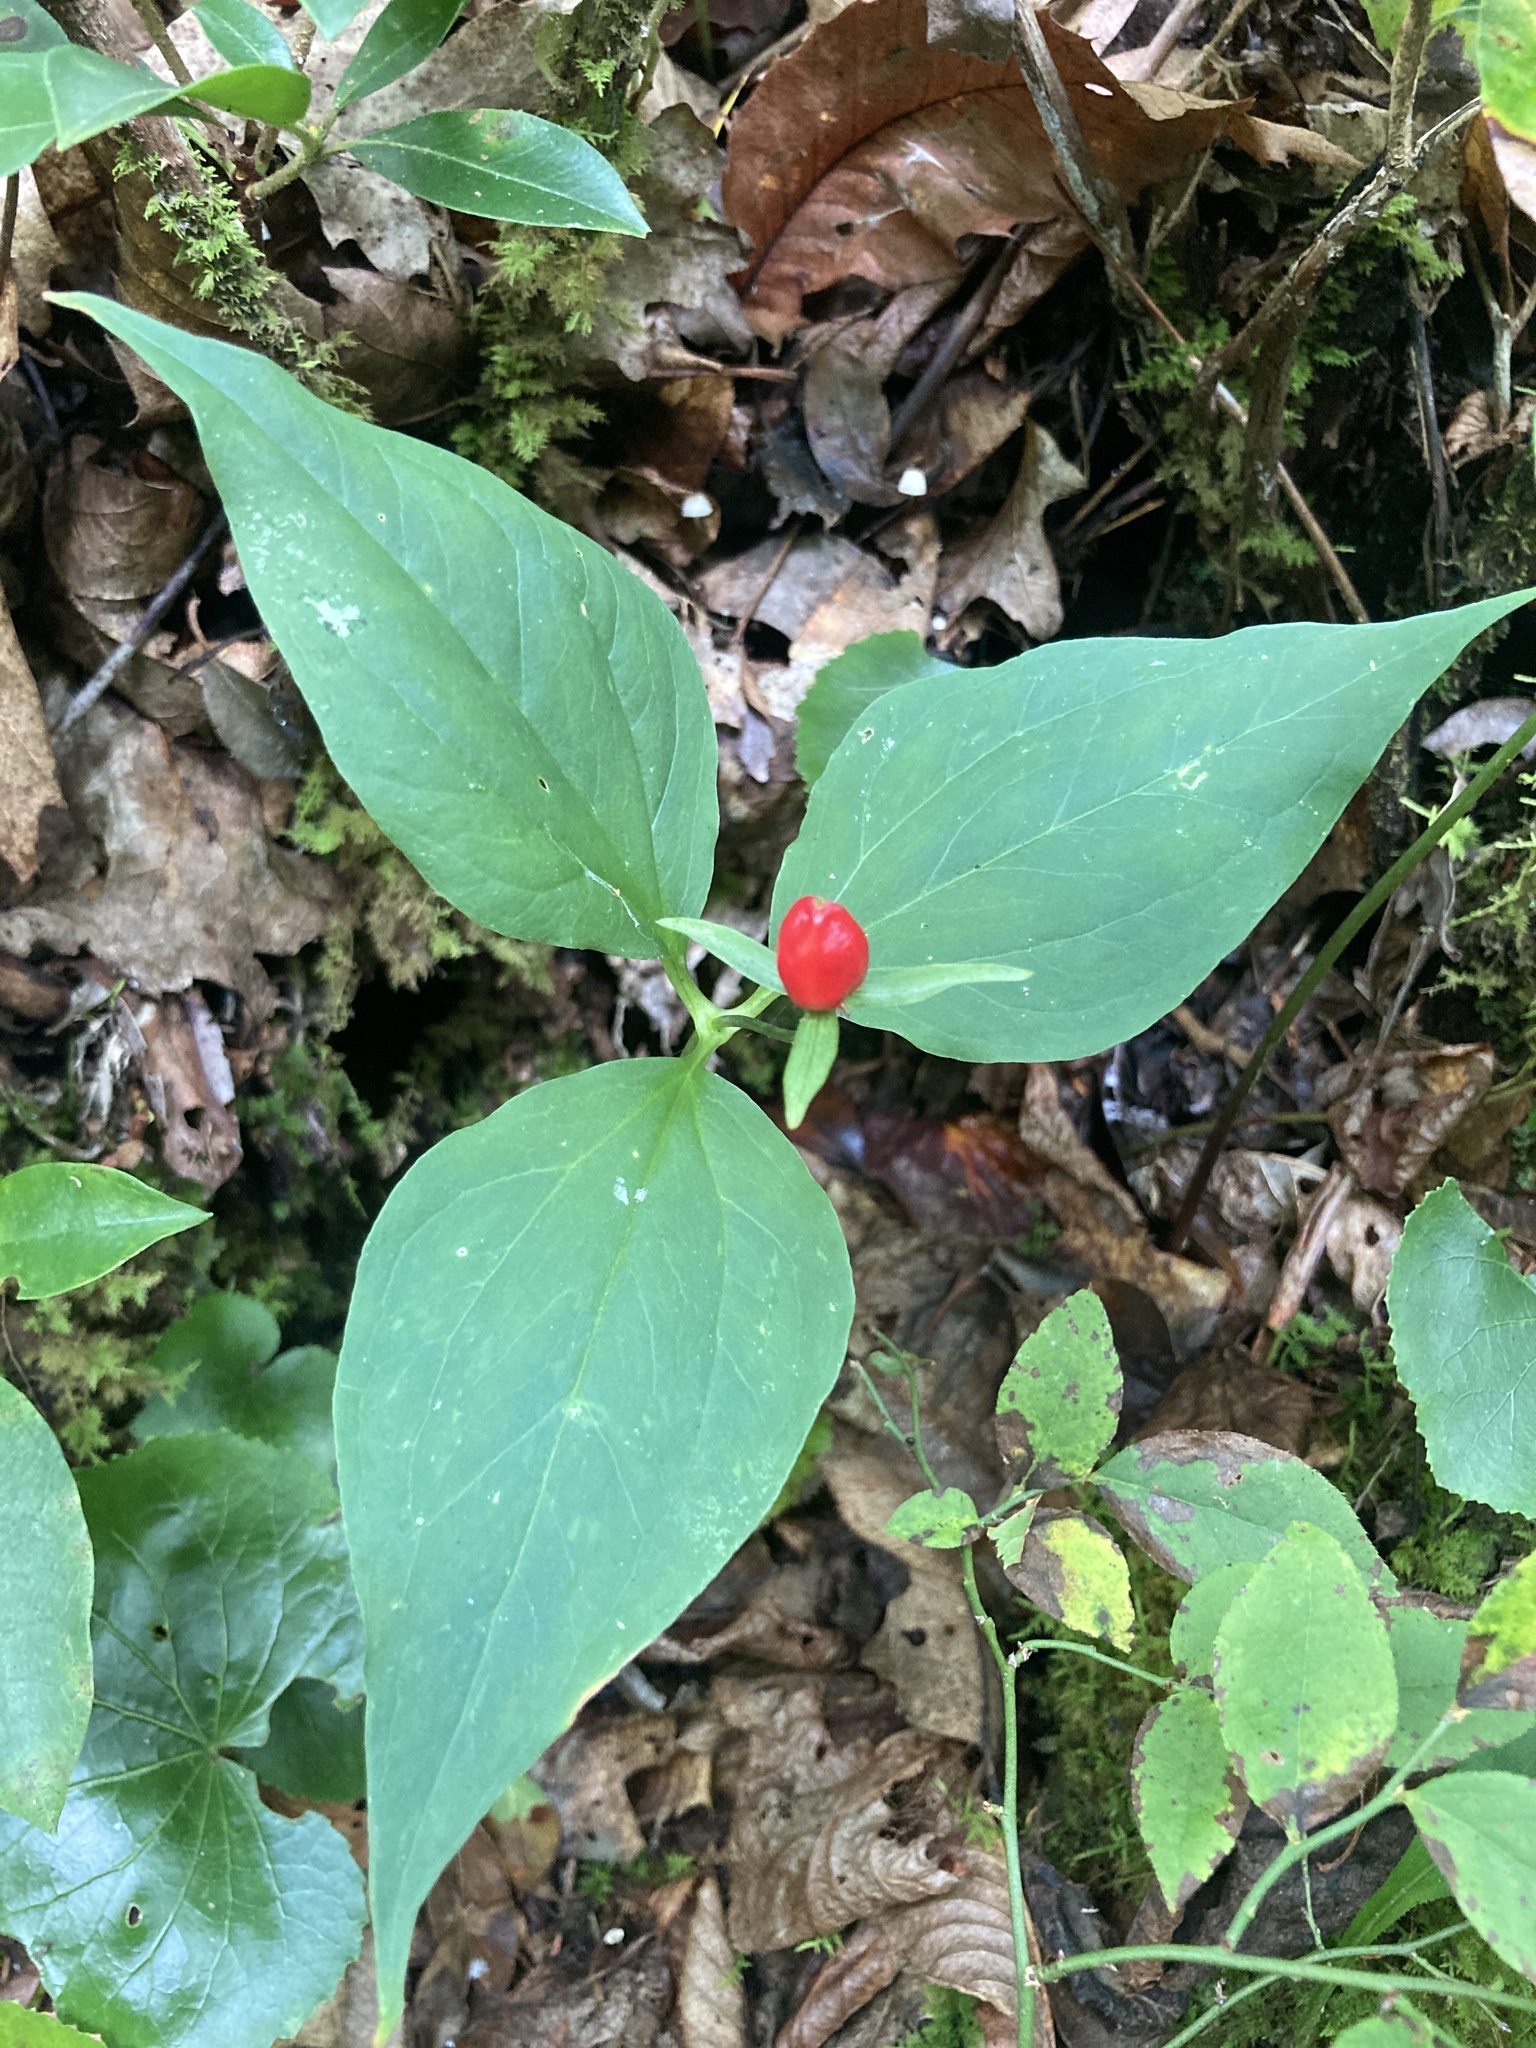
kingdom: Plantae
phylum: Tracheophyta
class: Liliopsida
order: Liliales
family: Melanthiaceae
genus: Trillium
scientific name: Trillium undulatum
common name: Paint trillium
